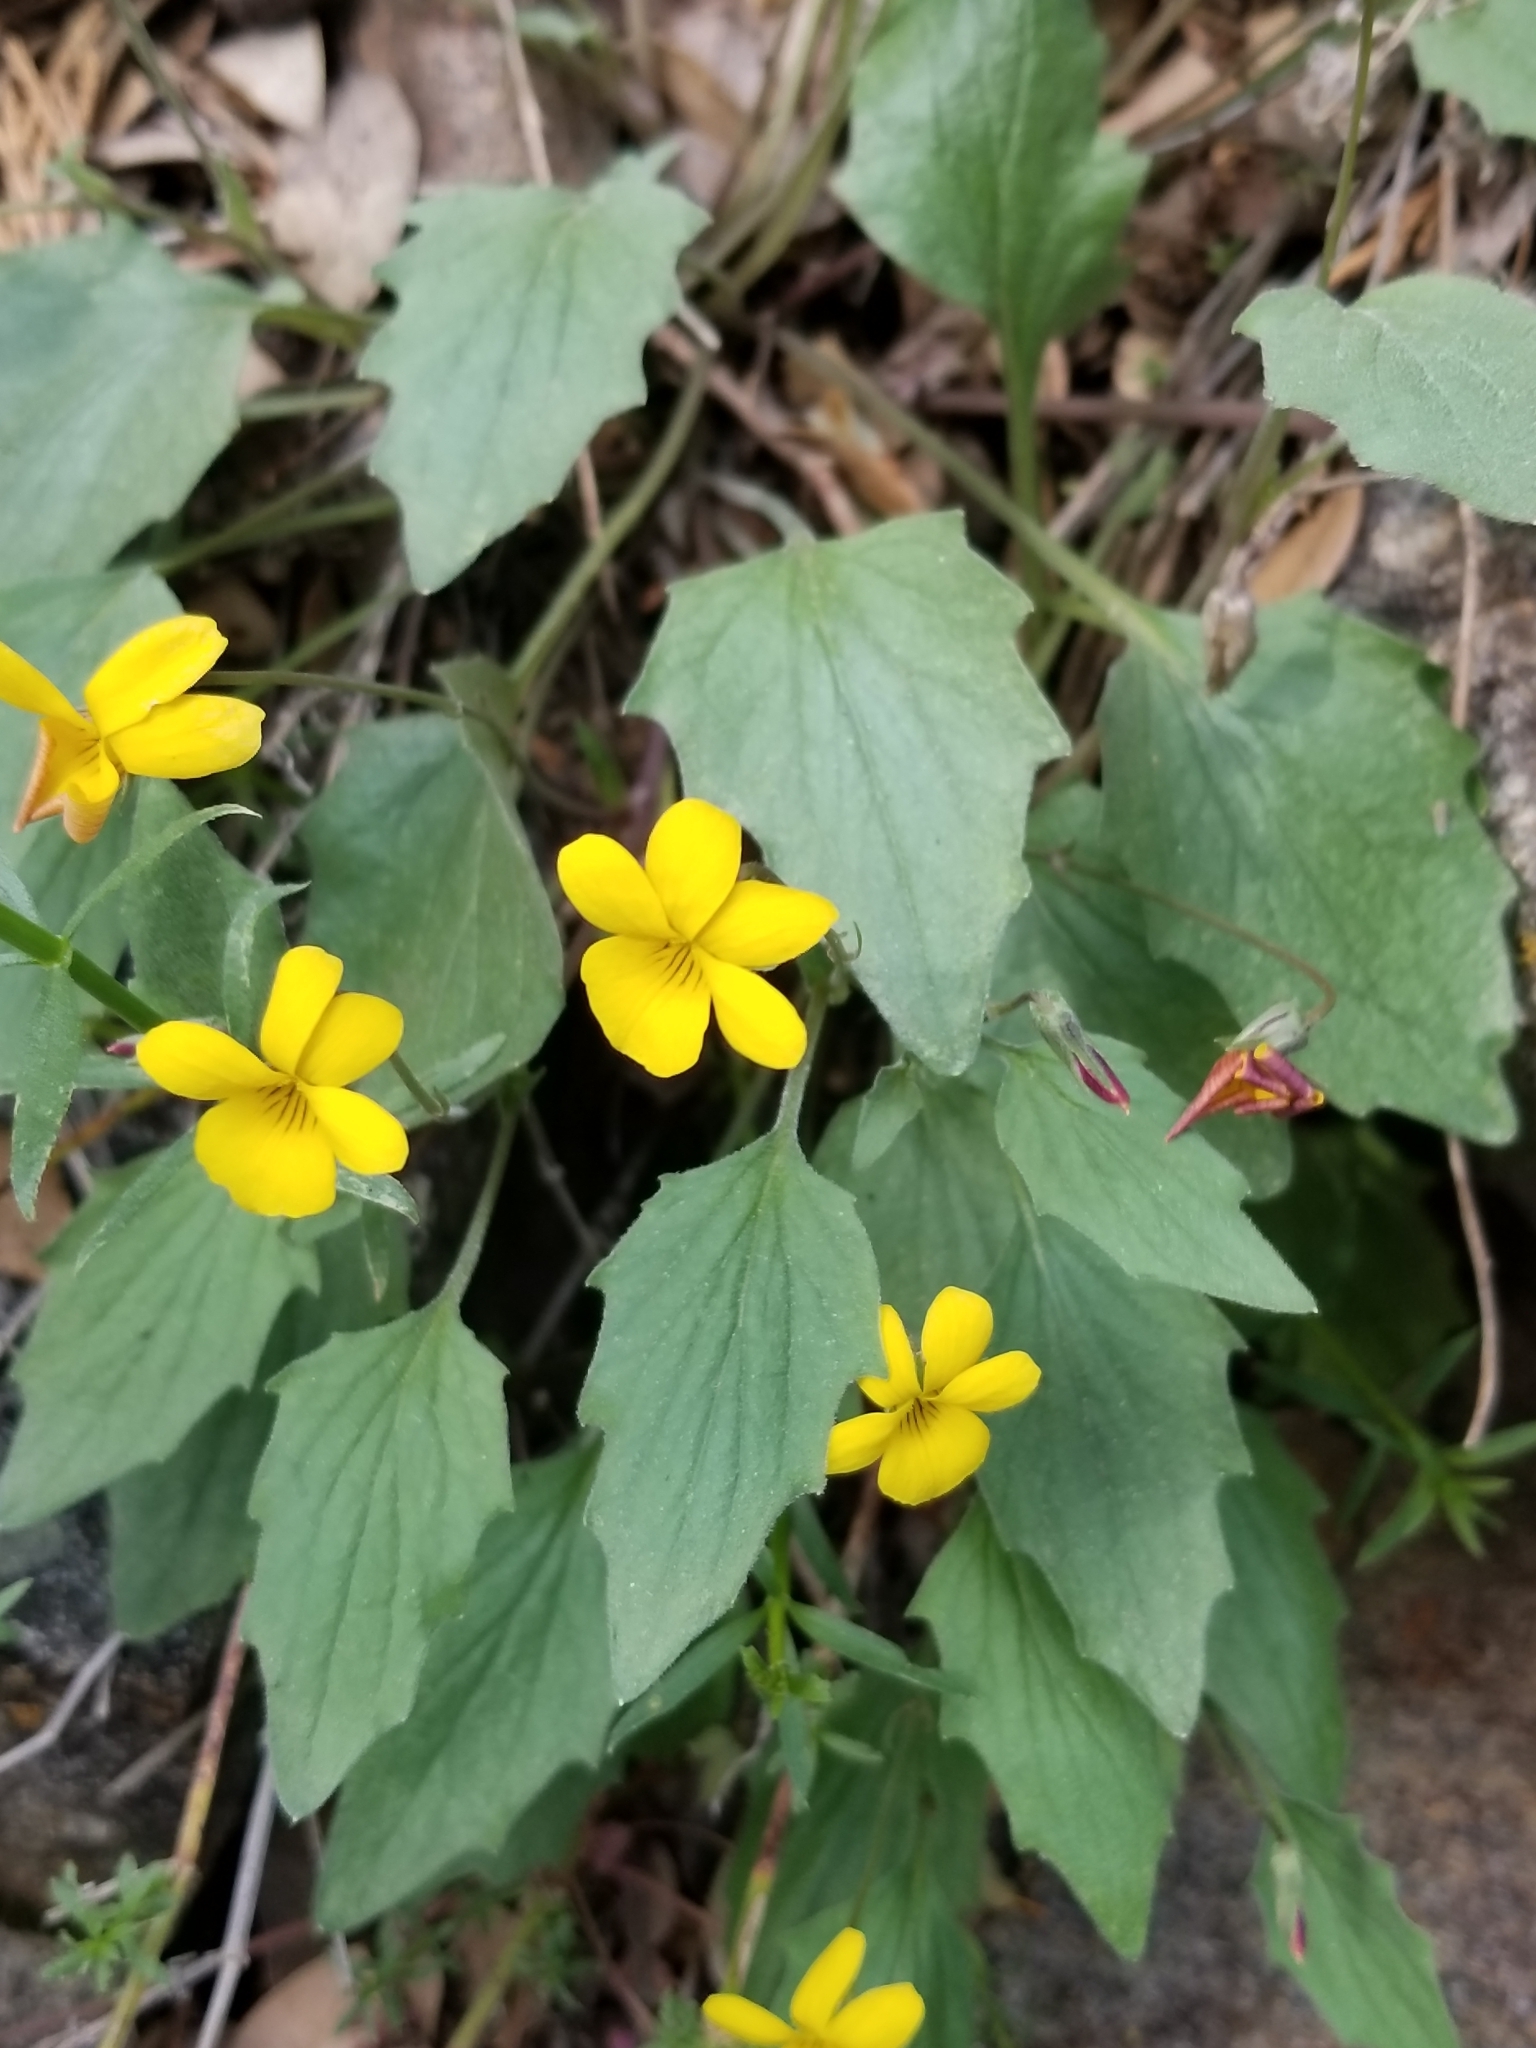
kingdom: Plantae
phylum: Tracheophyta
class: Magnoliopsida
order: Malpighiales
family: Violaceae
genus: Viola
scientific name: Viola purpurea
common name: Pine violet
